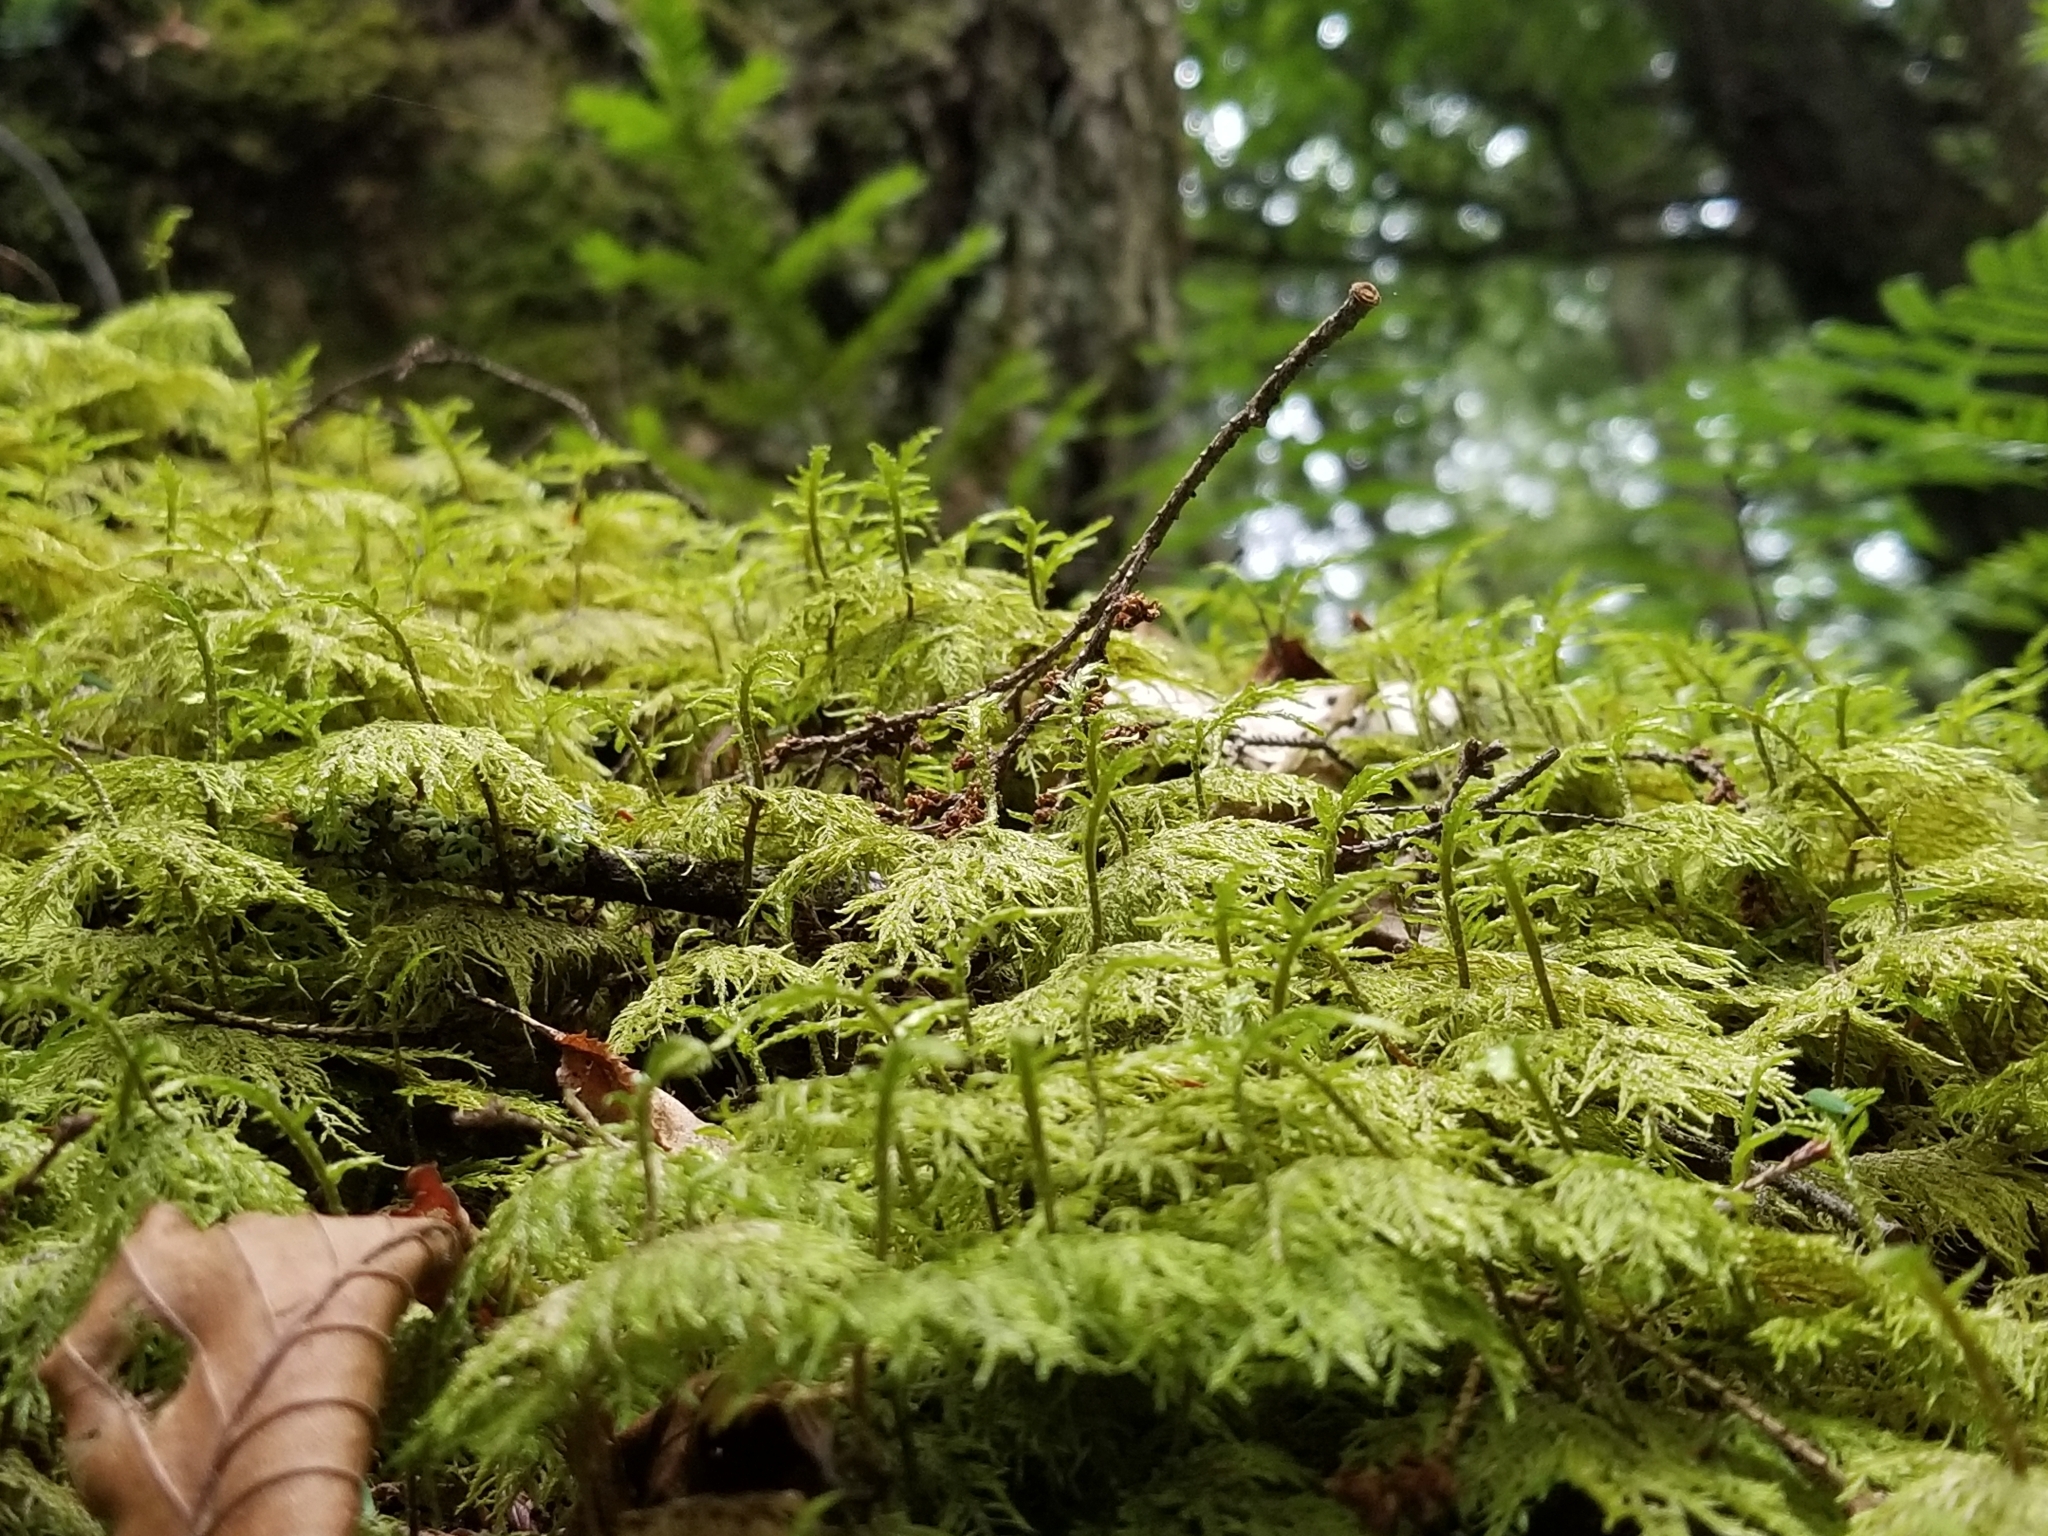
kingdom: Plantae
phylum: Bryophyta
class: Bryopsida
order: Hypnales
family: Hylocomiaceae
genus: Hylocomium
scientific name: Hylocomium splendens
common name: Stairstep moss
